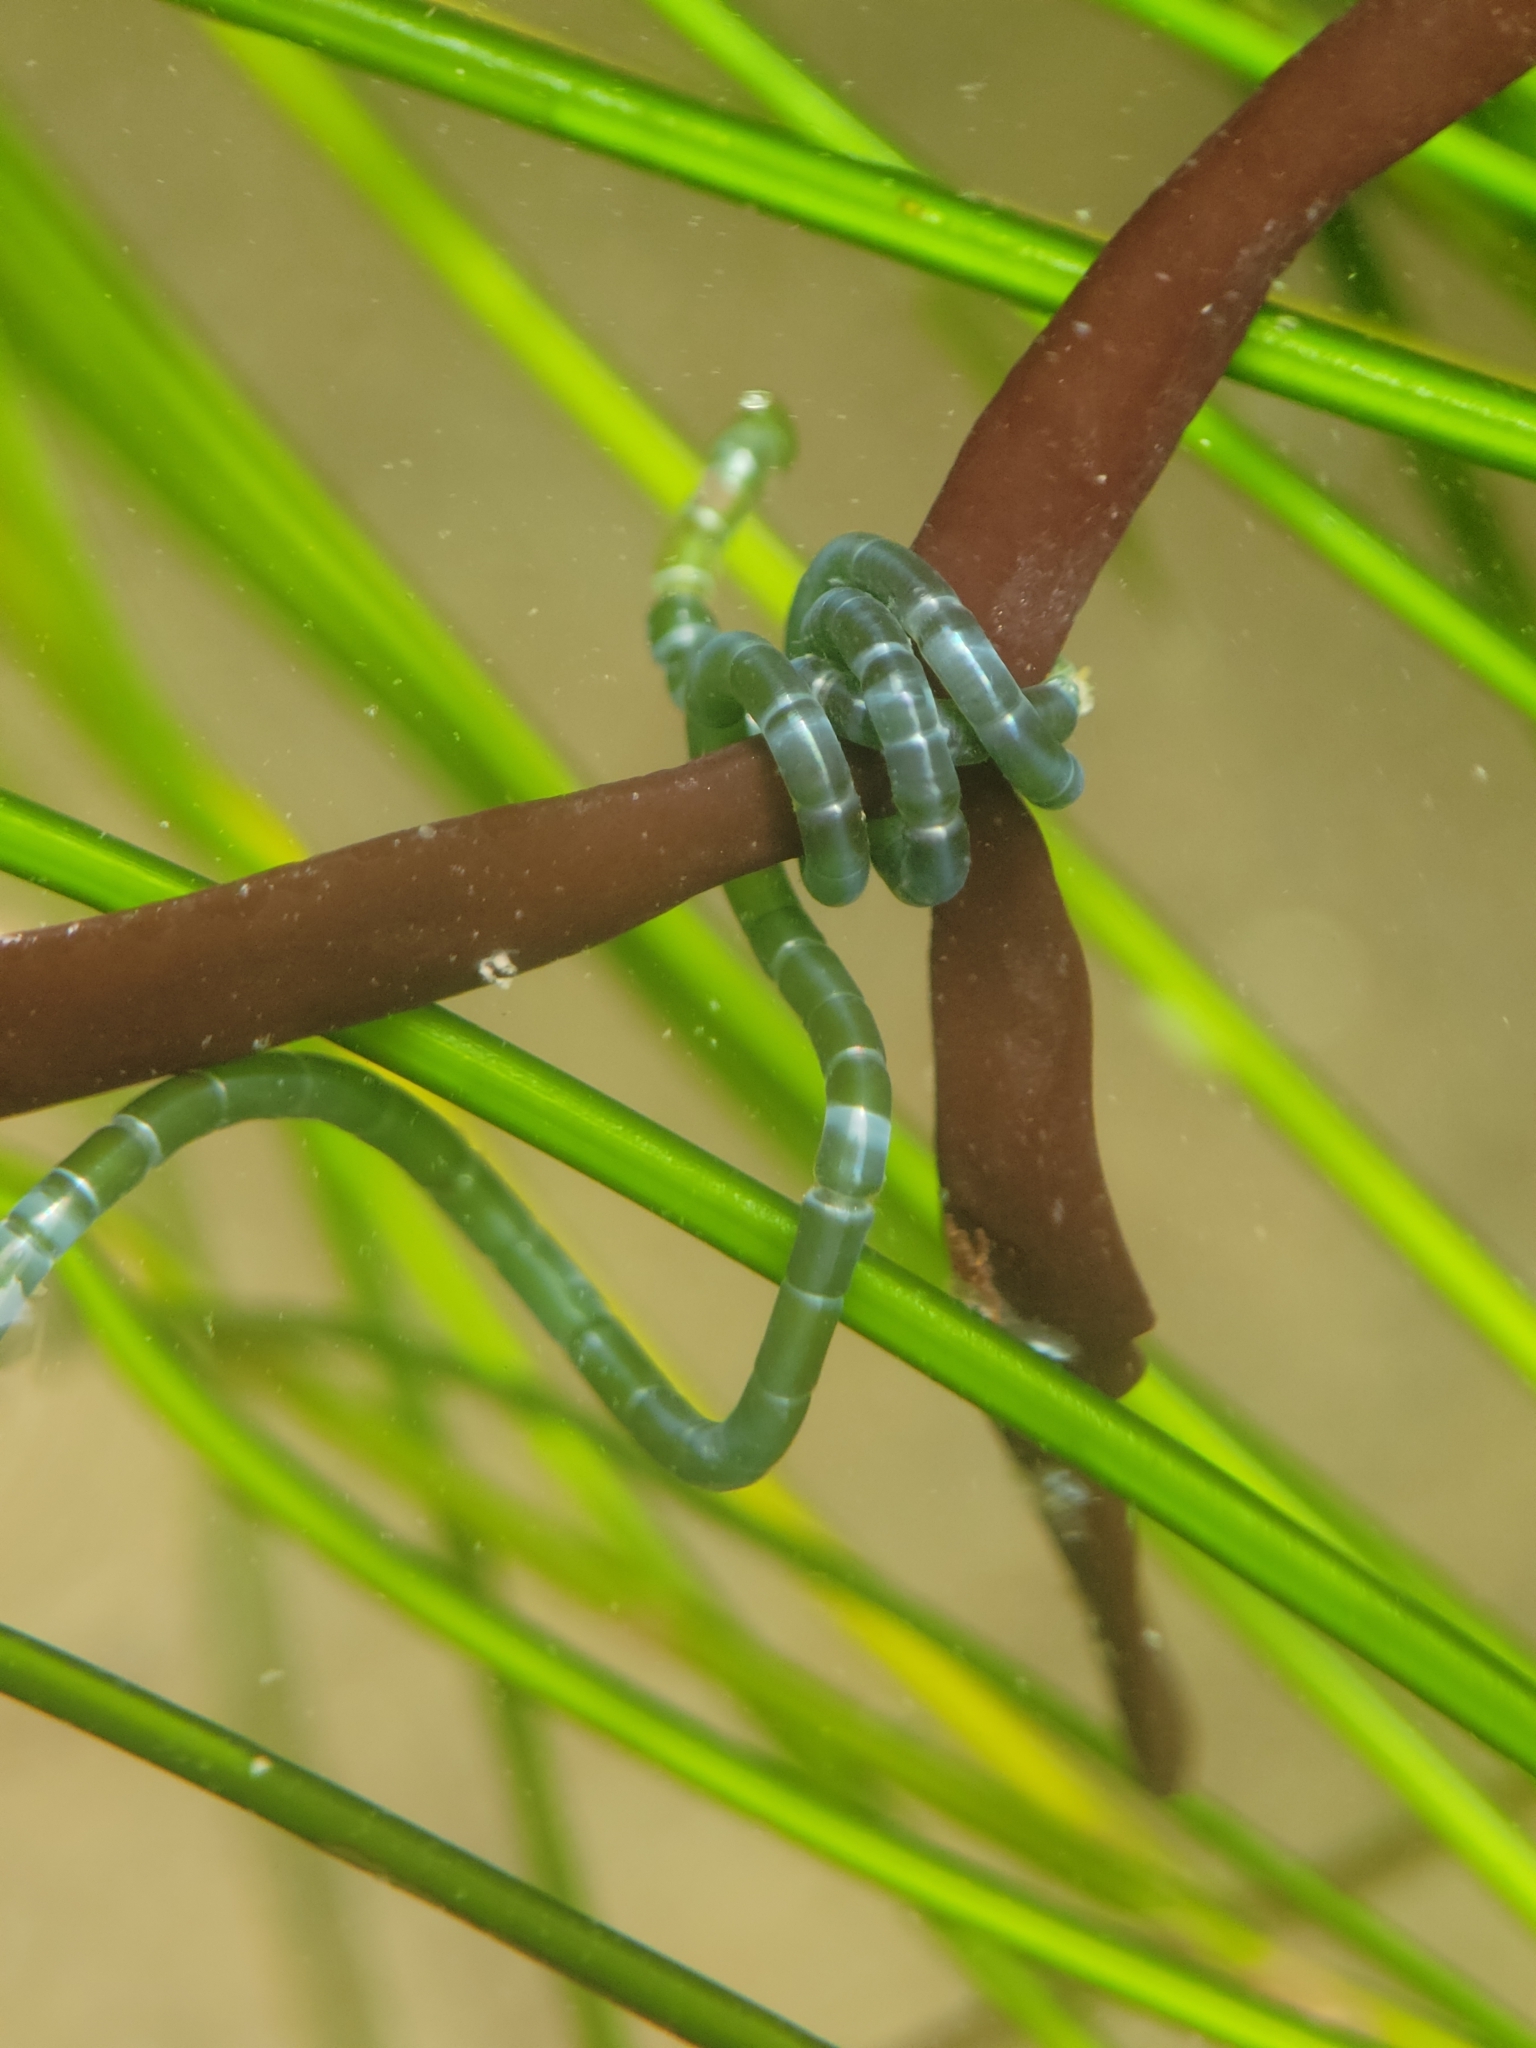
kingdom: Plantae
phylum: Chlorophyta
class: Ulvophyceae
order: Cladophorales
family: Cladophoraceae
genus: Chaetomorpha
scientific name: Chaetomorpha spiralis
